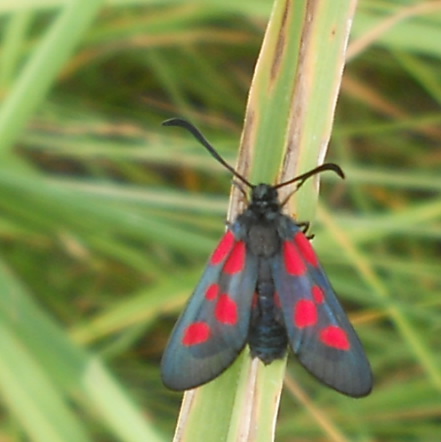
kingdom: Animalia
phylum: Arthropoda
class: Insecta
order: Lepidoptera
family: Zygaenidae
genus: Zygaena
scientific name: Zygaena loti
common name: Slender scotch burnet
